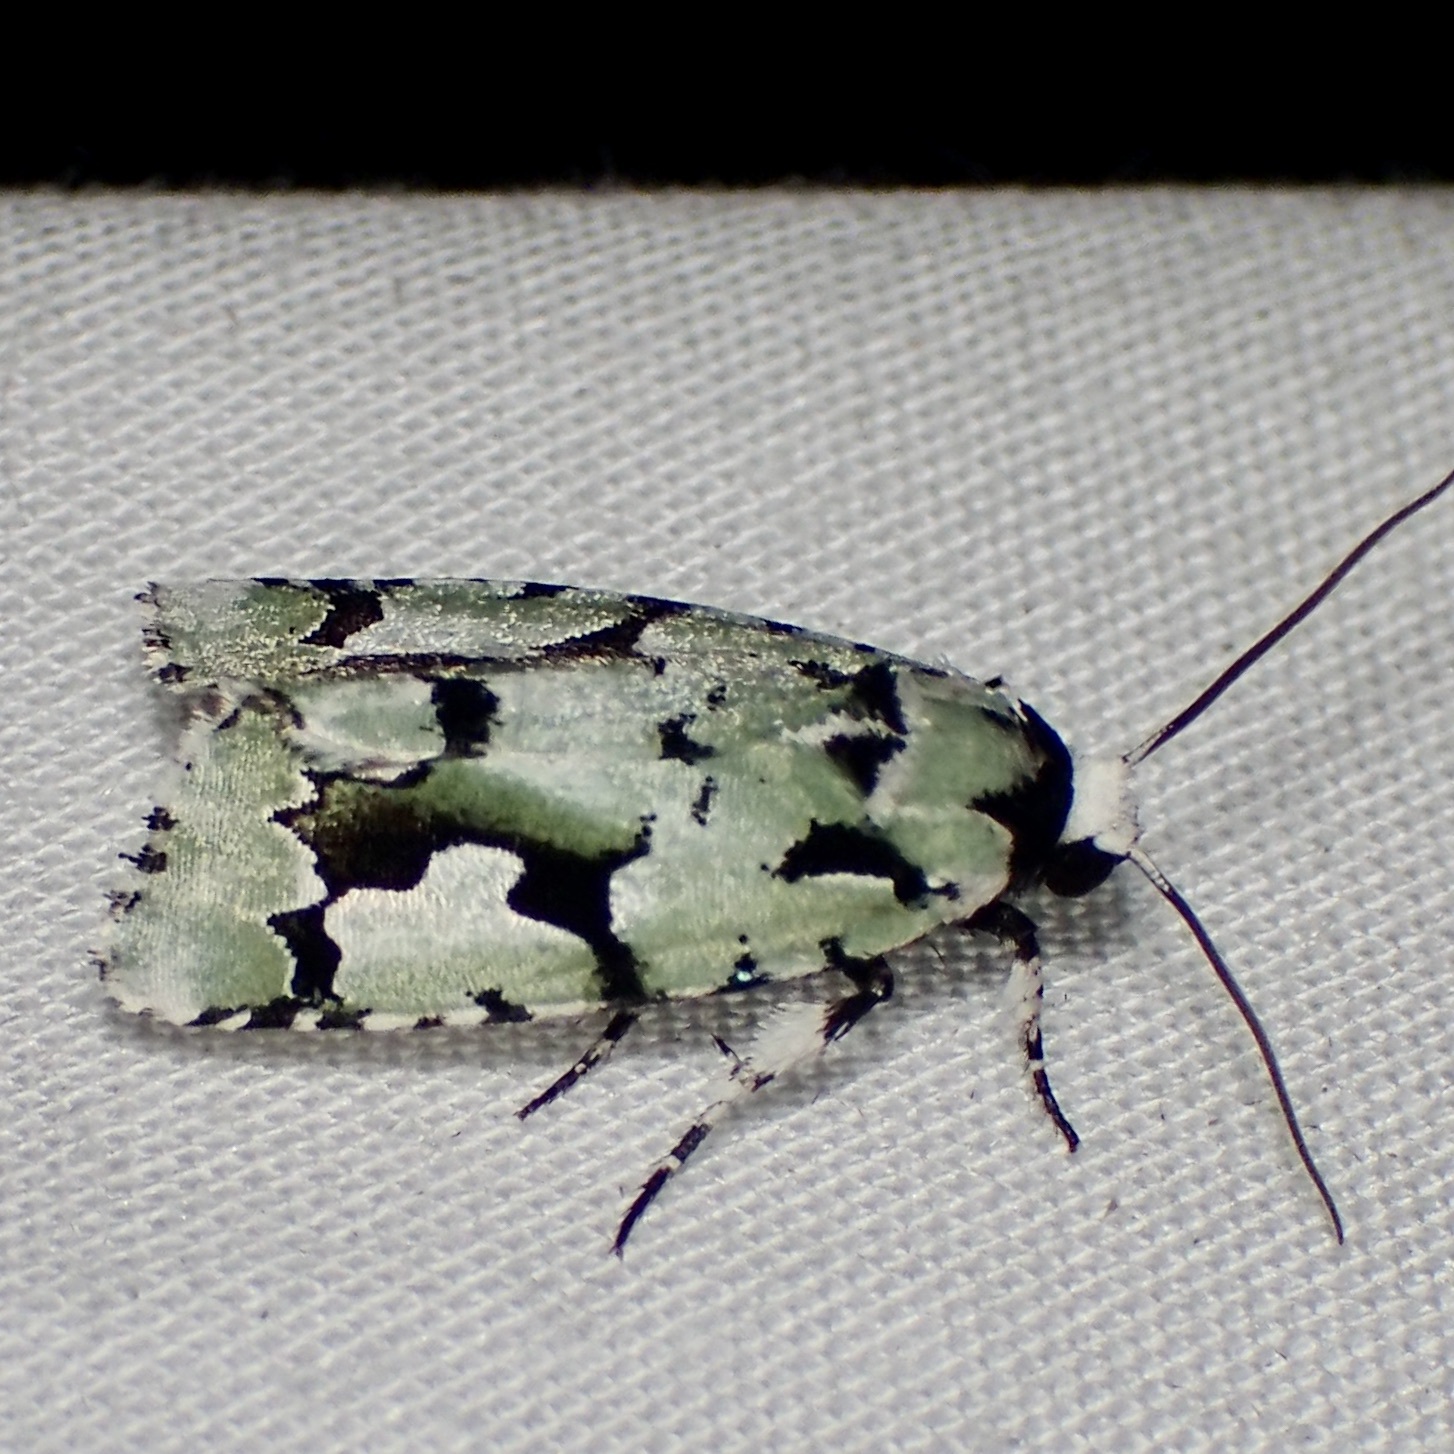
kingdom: Animalia
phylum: Arthropoda
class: Insecta
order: Lepidoptera
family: Noctuidae
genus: Emarginea
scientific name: Emarginea dulcinea
